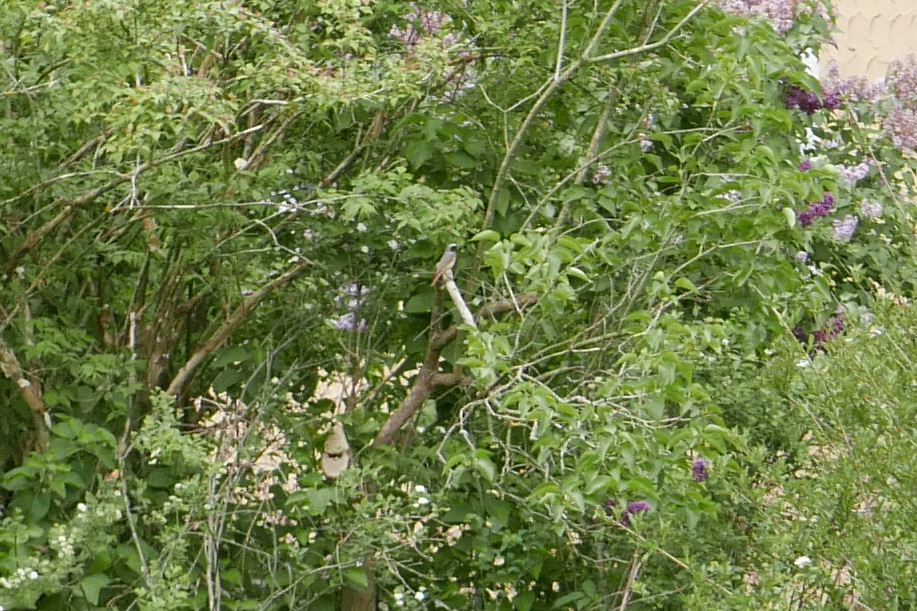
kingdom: Animalia
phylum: Chordata
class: Aves
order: Passeriformes
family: Muscicapidae
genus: Phoenicurus
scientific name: Phoenicurus phoenicurus
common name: Common redstart
